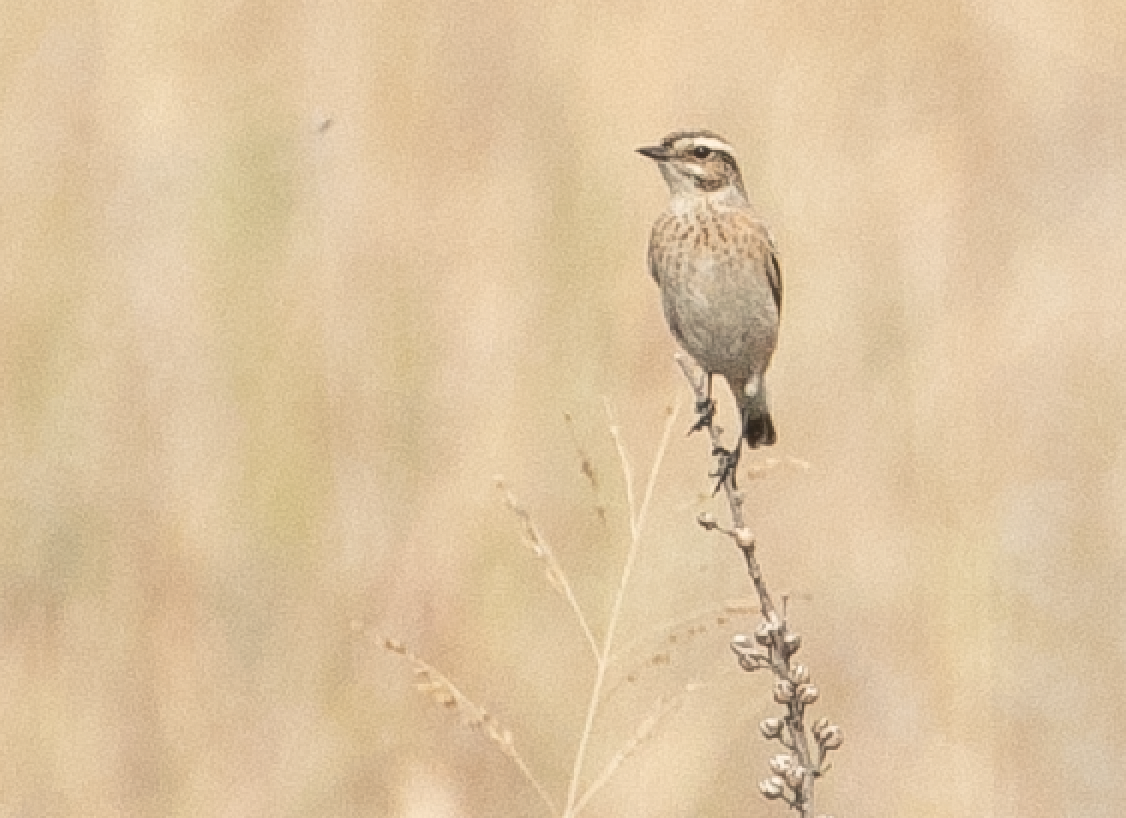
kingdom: Animalia
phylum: Chordata
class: Aves
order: Passeriformes
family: Muscicapidae
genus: Saxicola
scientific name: Saxicola rubetra
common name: Whinchat
